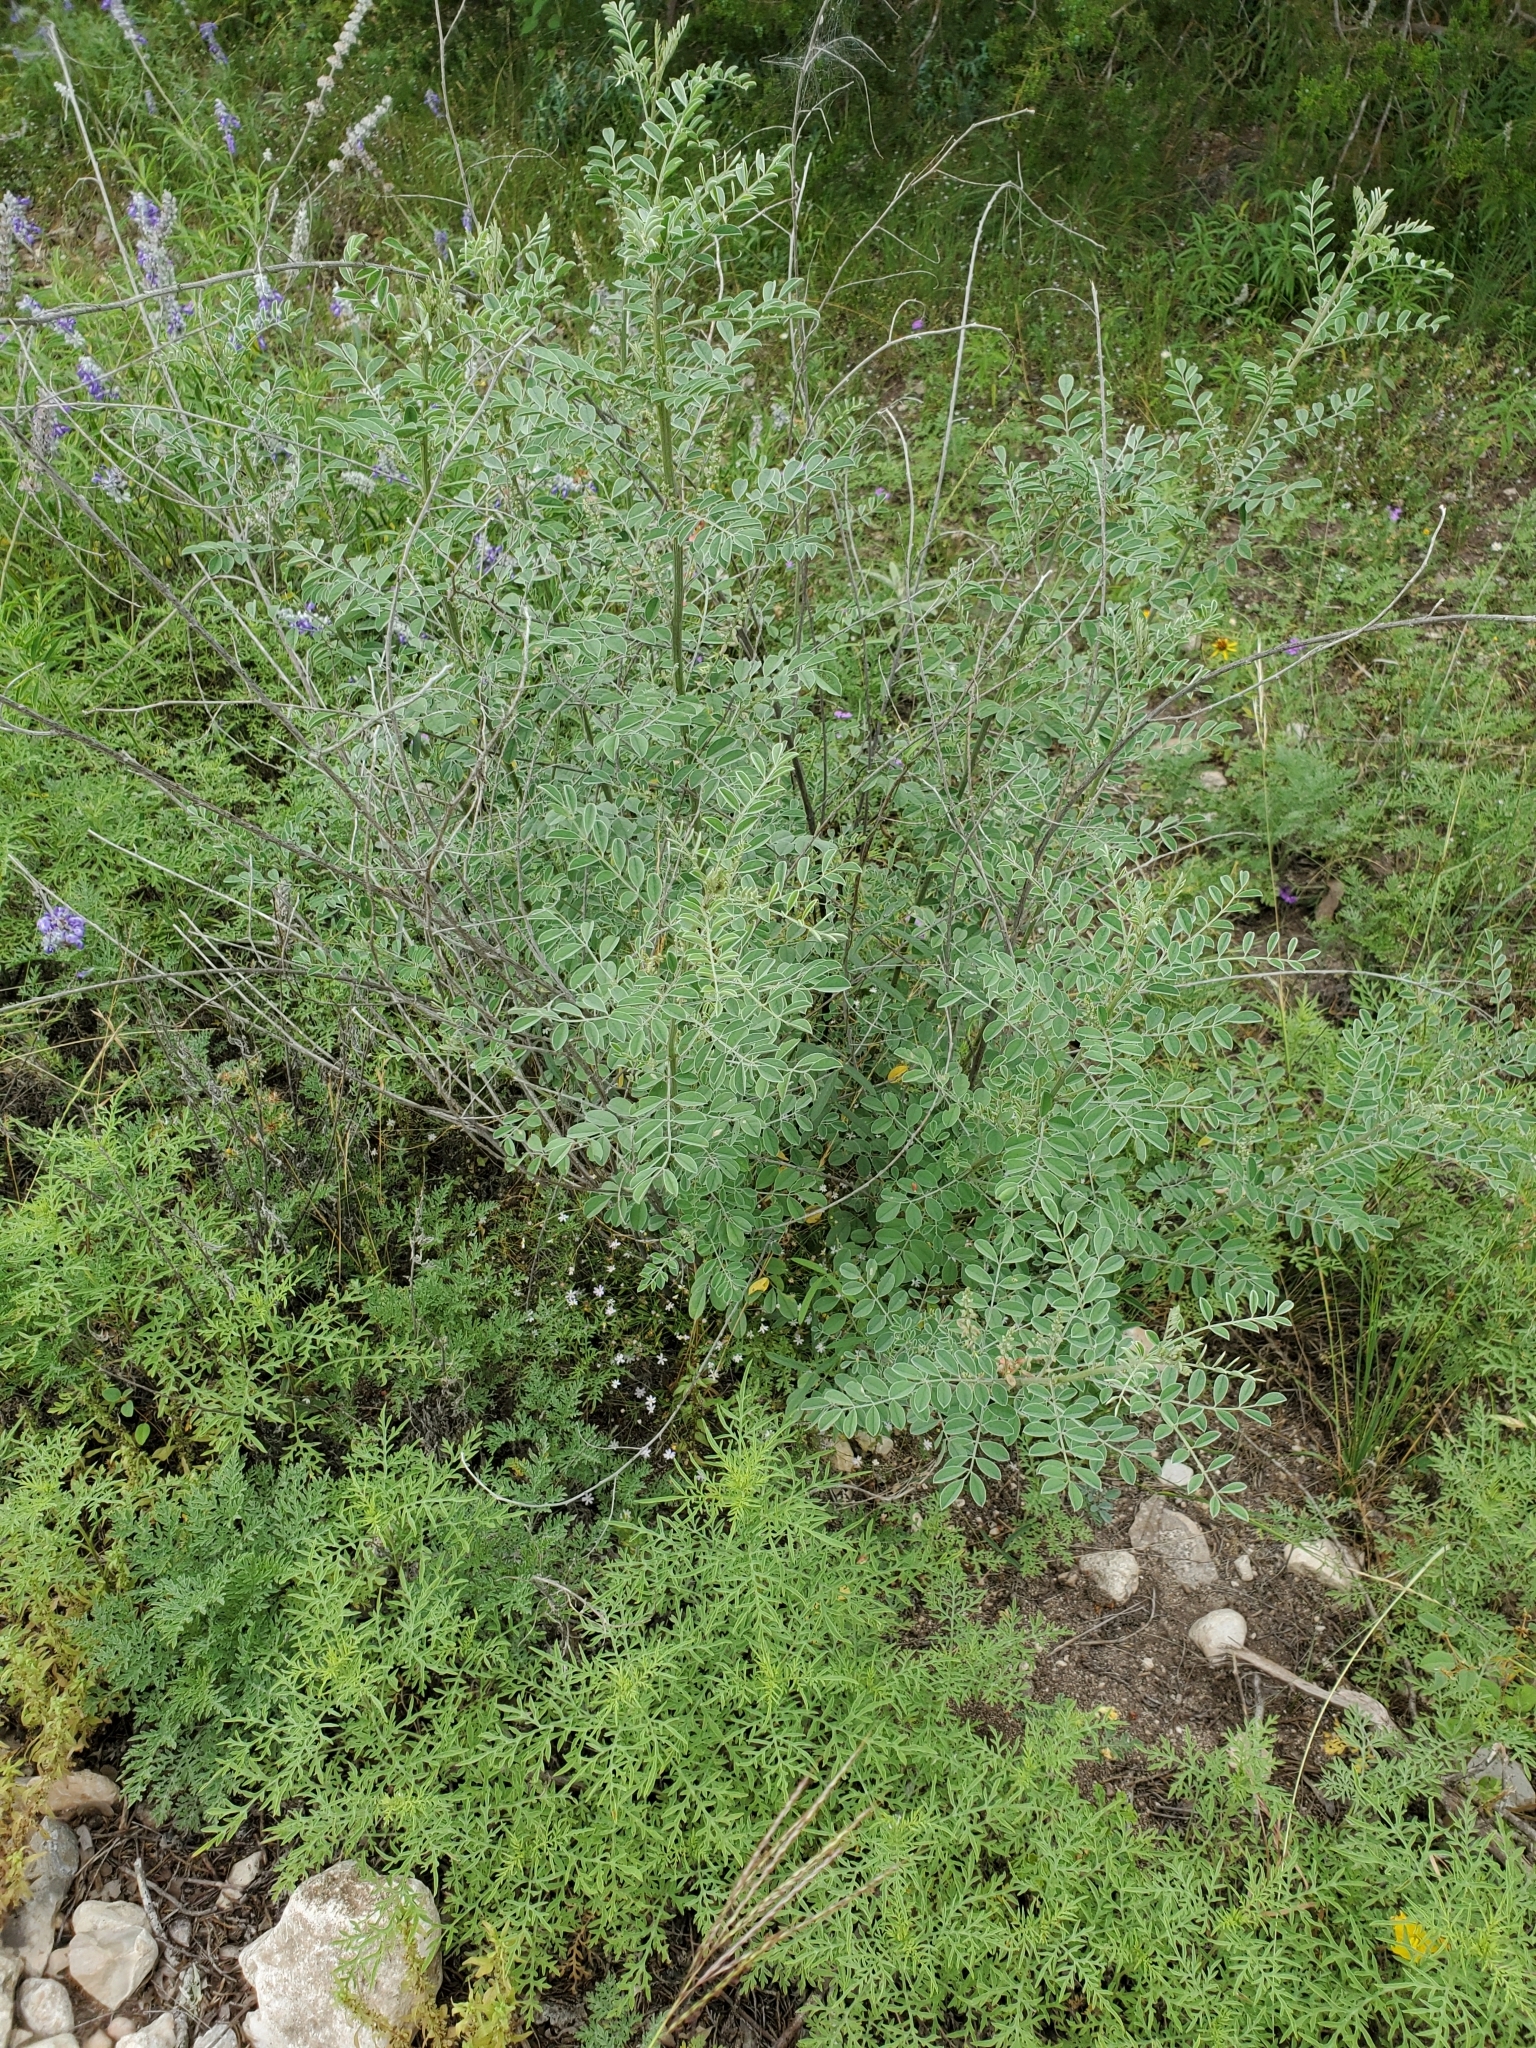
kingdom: Plantae
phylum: Tracheophyta
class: Magnoliopsida
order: Fabales
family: Fabaceae
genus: Indigofera
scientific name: Indigofera lindheimeriana
